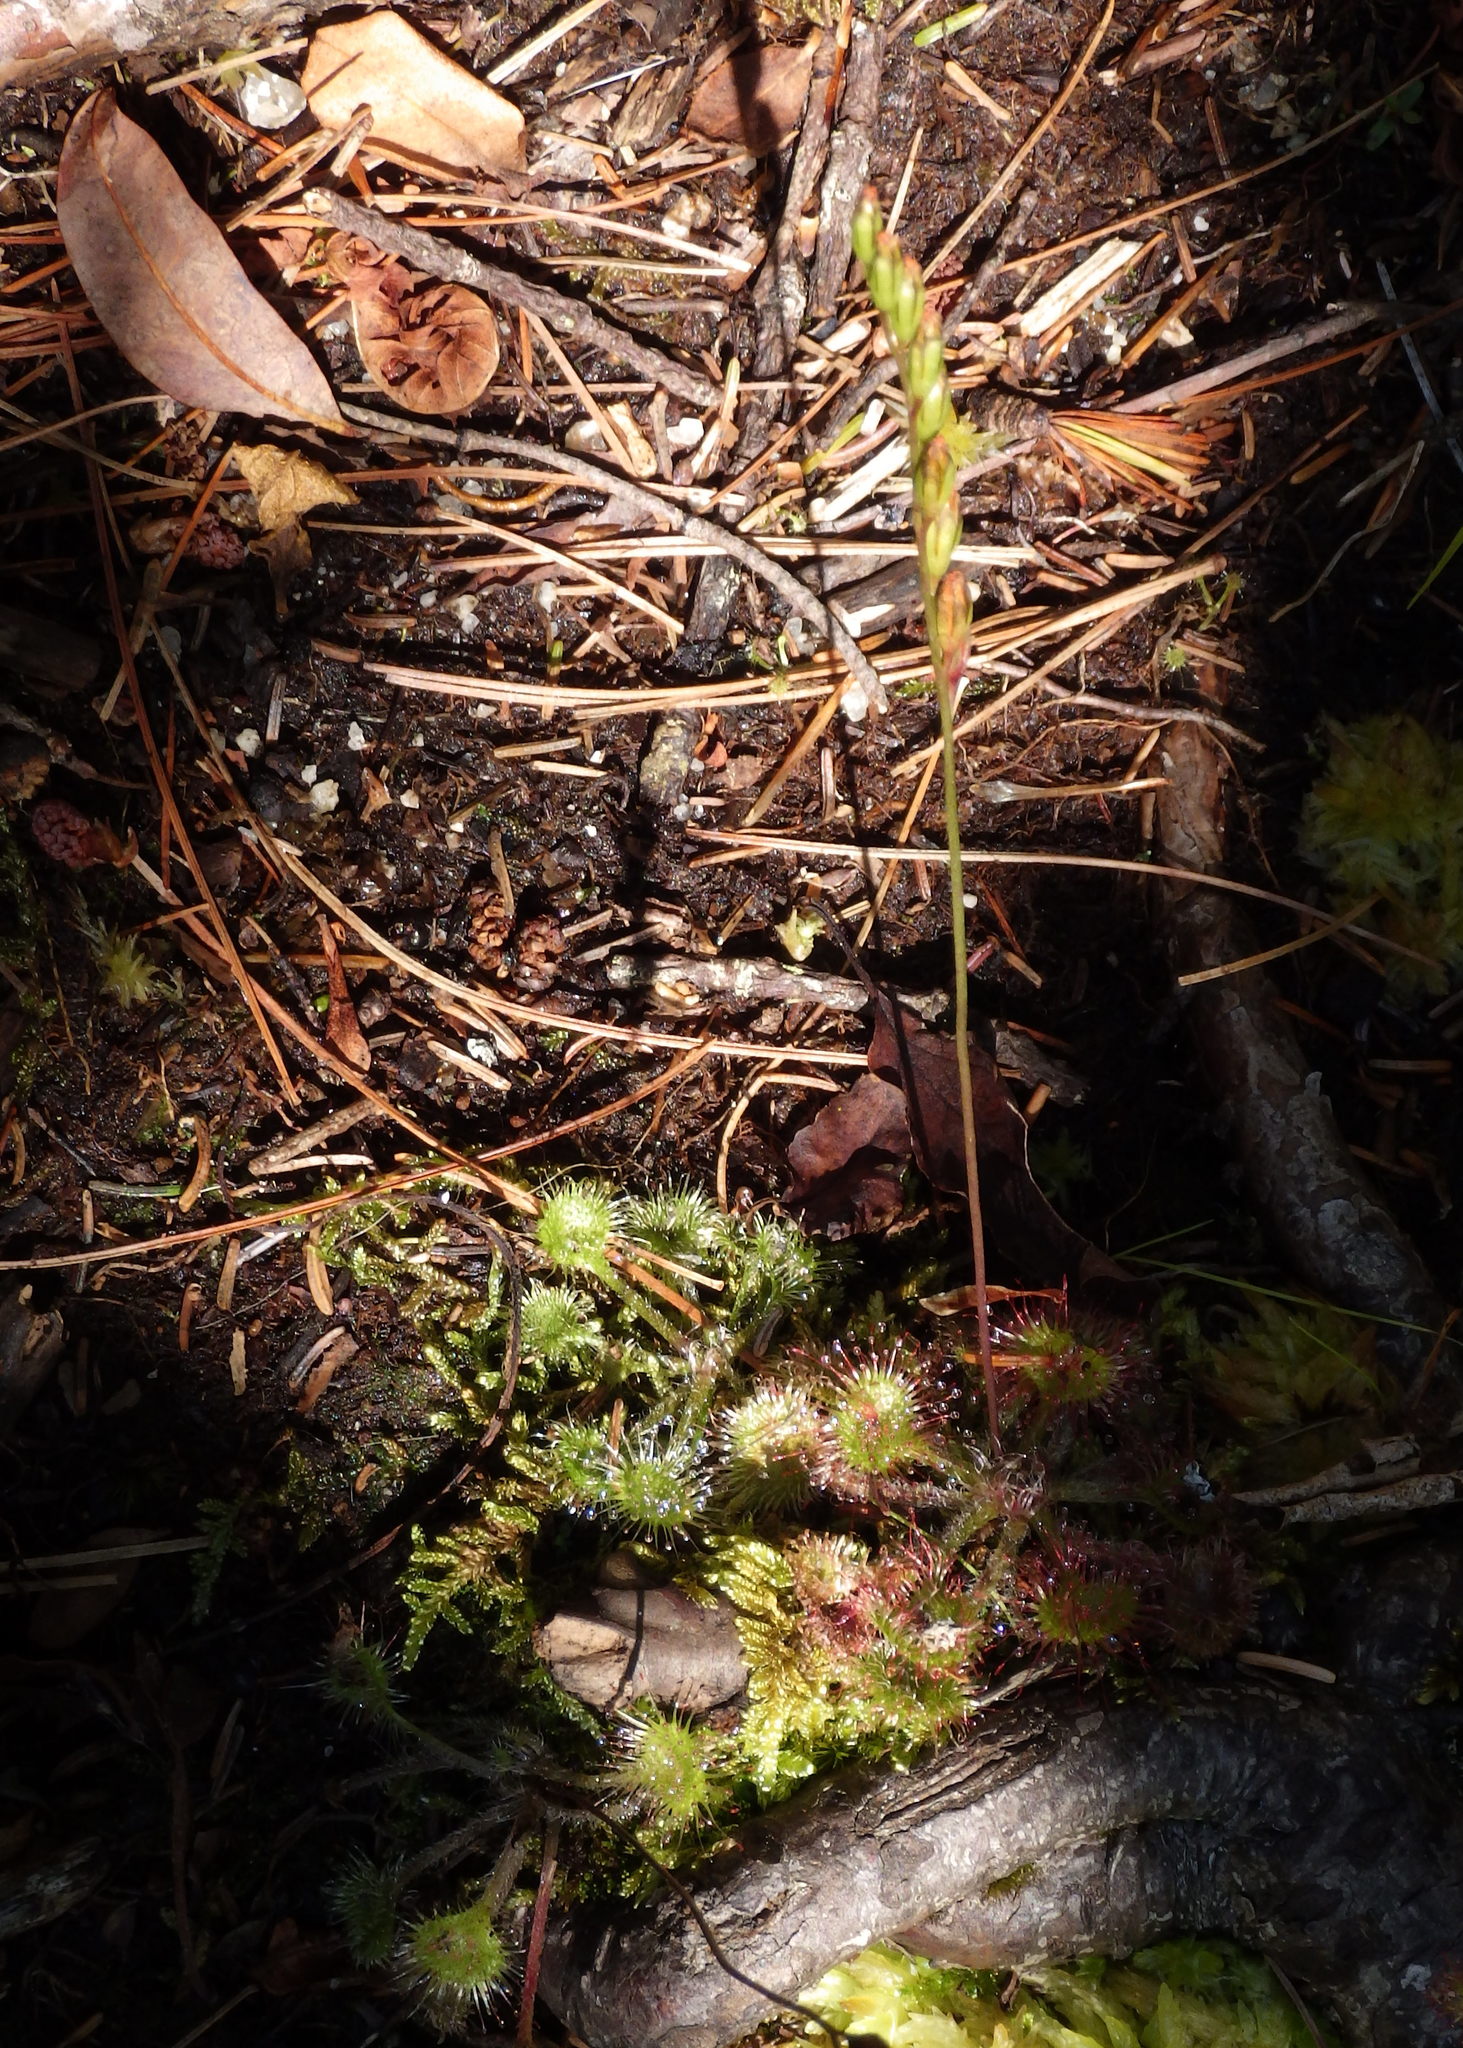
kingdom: Plantae
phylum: Tracheophyta
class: Magnoliopsida
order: Caryophyllales
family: Droseraceae
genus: Drosera
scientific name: Drosera rotundifolia
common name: Round-leaved sundew
